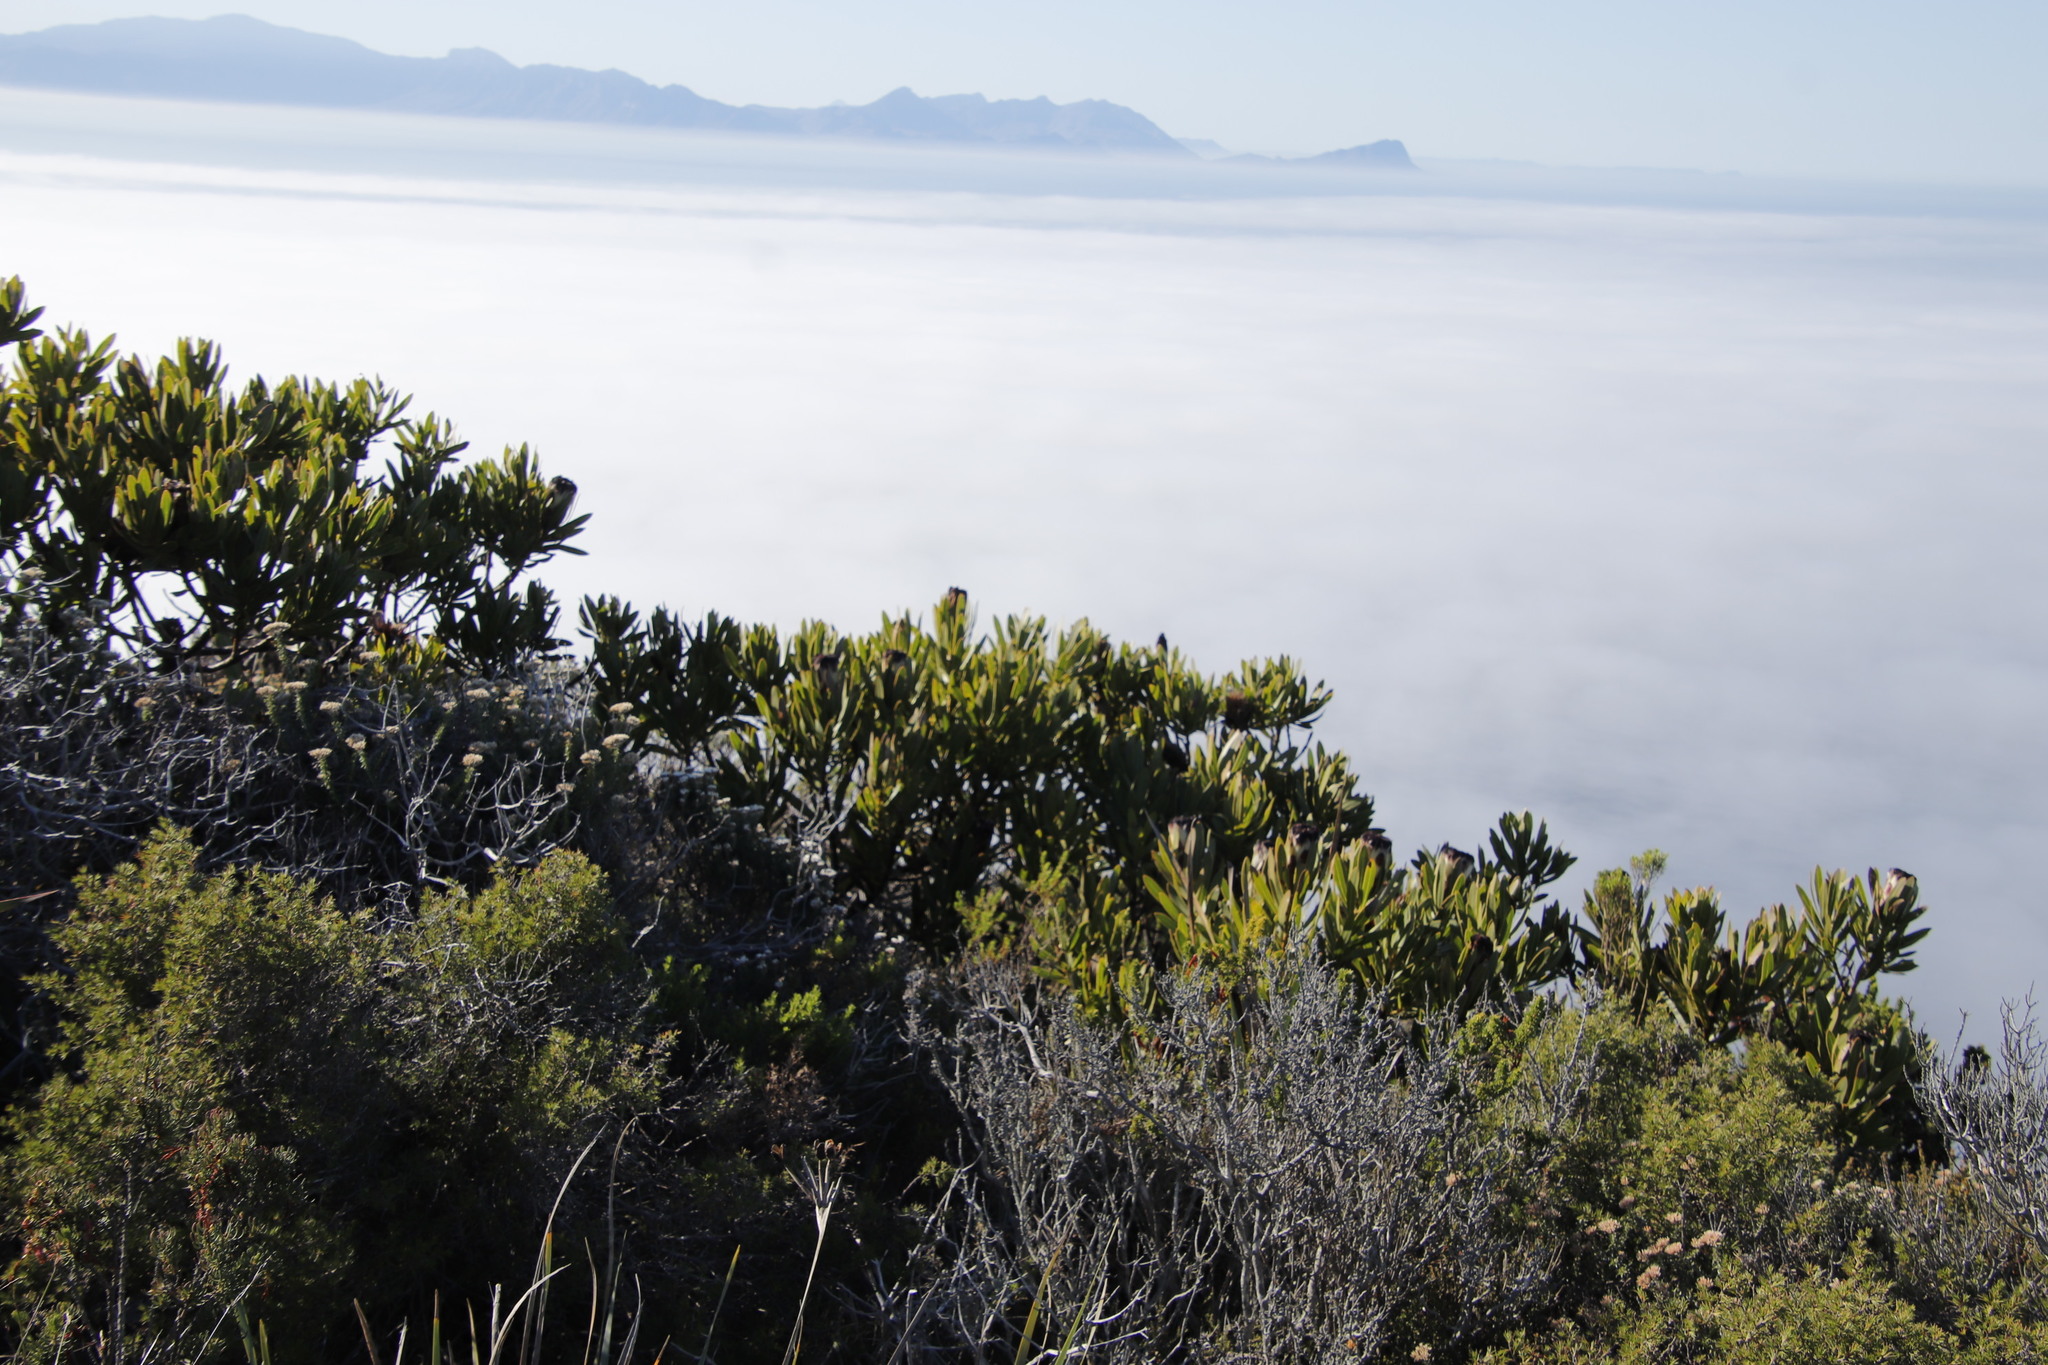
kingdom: Plantae
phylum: Tracheophyta
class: Magnoliopsida
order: Proteales
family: Proteaceae
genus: Protea
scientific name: Protea lepidocarpodendron
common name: Black-bearded protea
